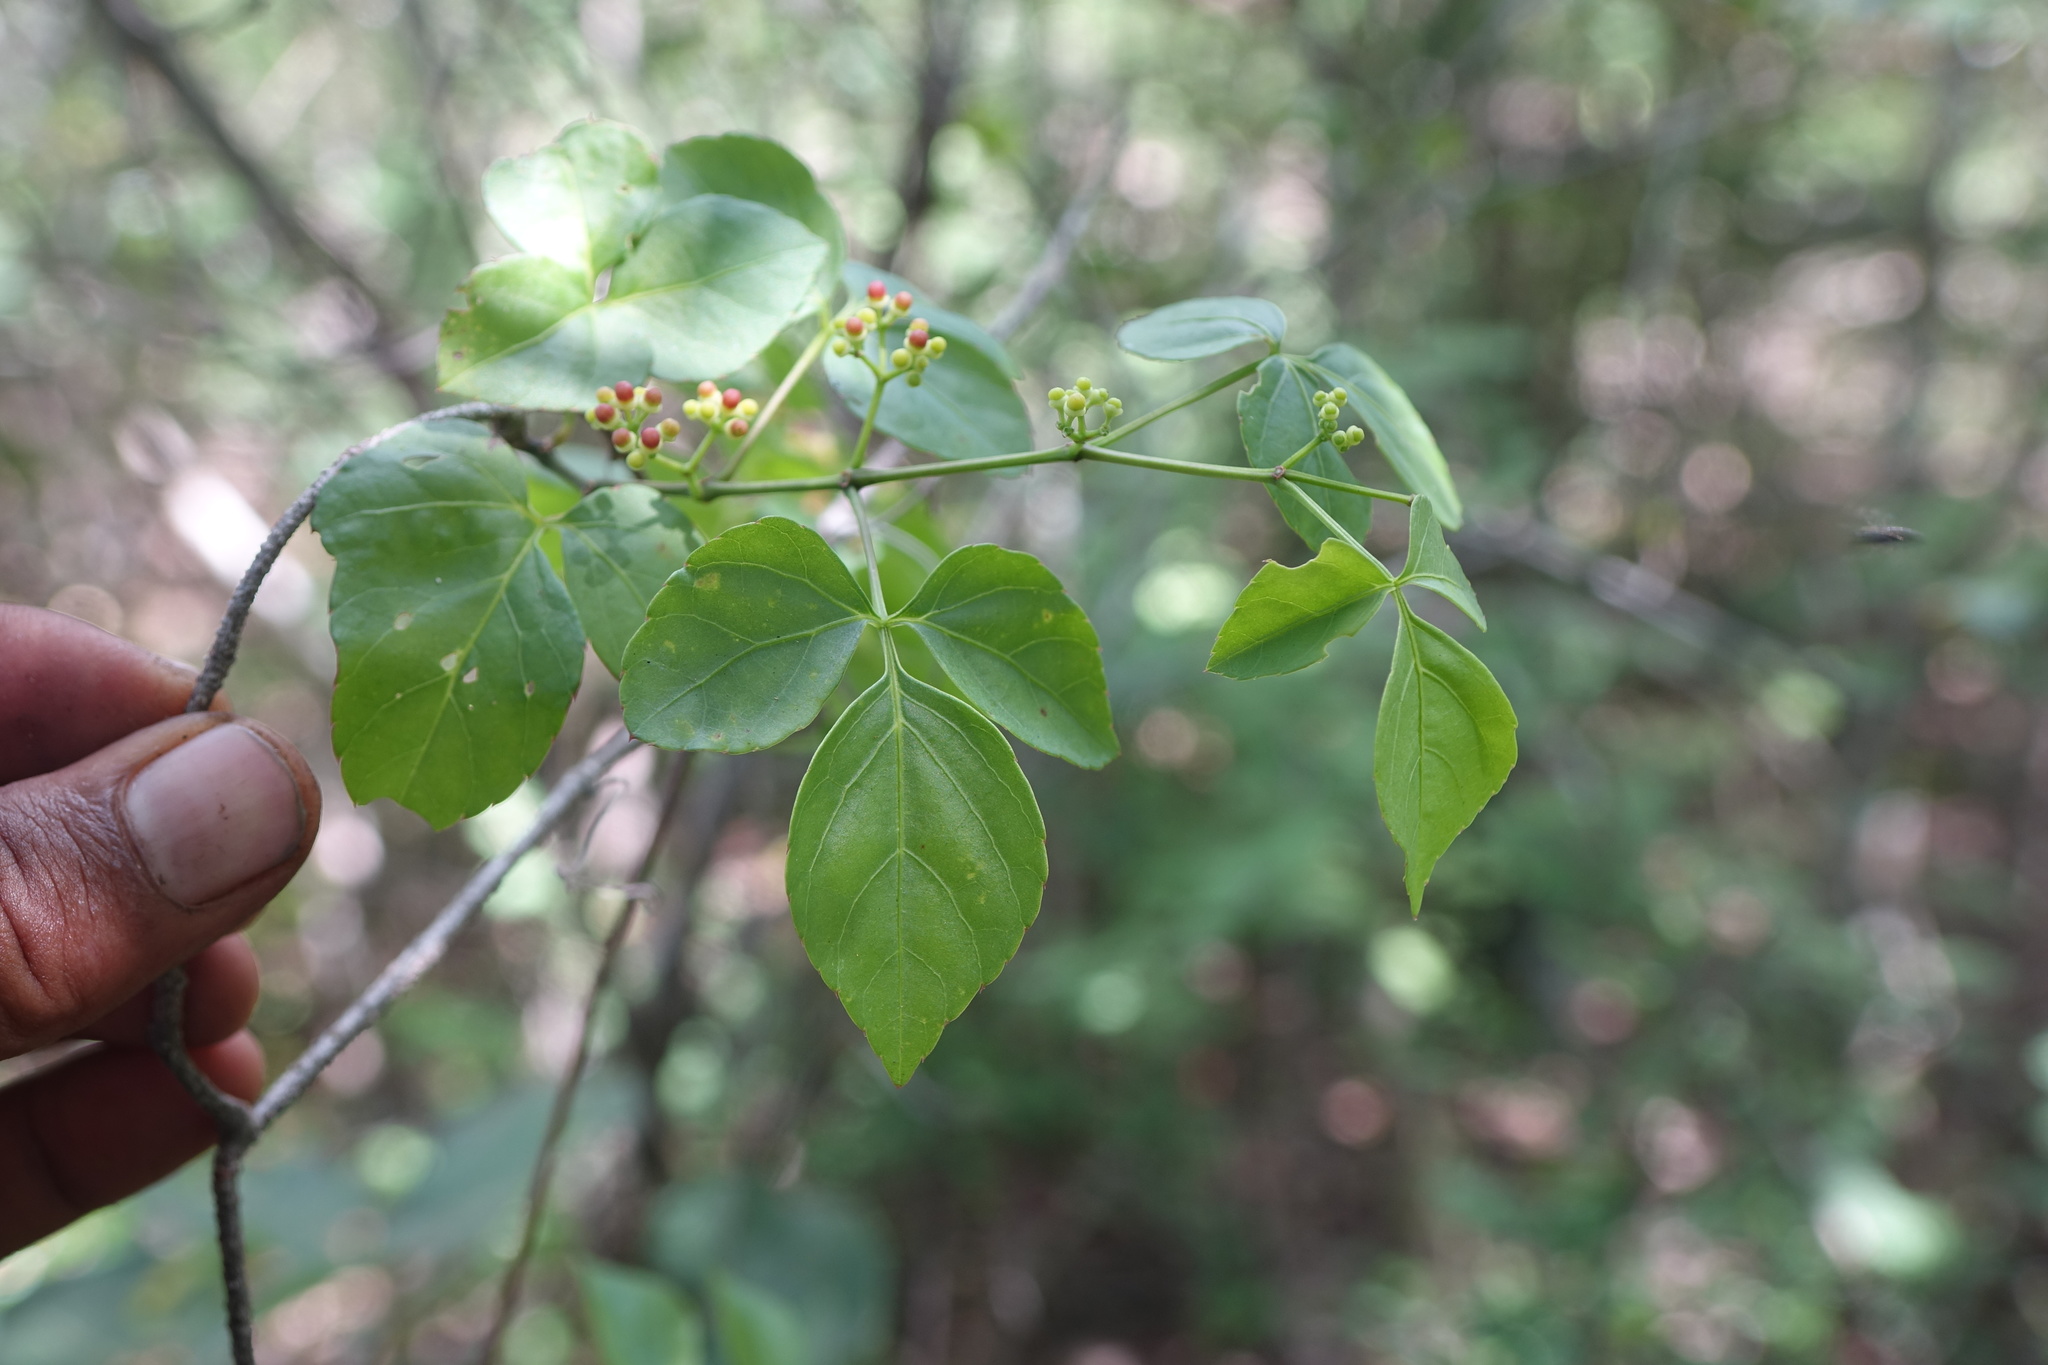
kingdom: Plantae
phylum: Tracheophyta
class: Magnoliopsida
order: Vitales
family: Vitaceae
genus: Cissus
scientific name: Cissus ambongensis
